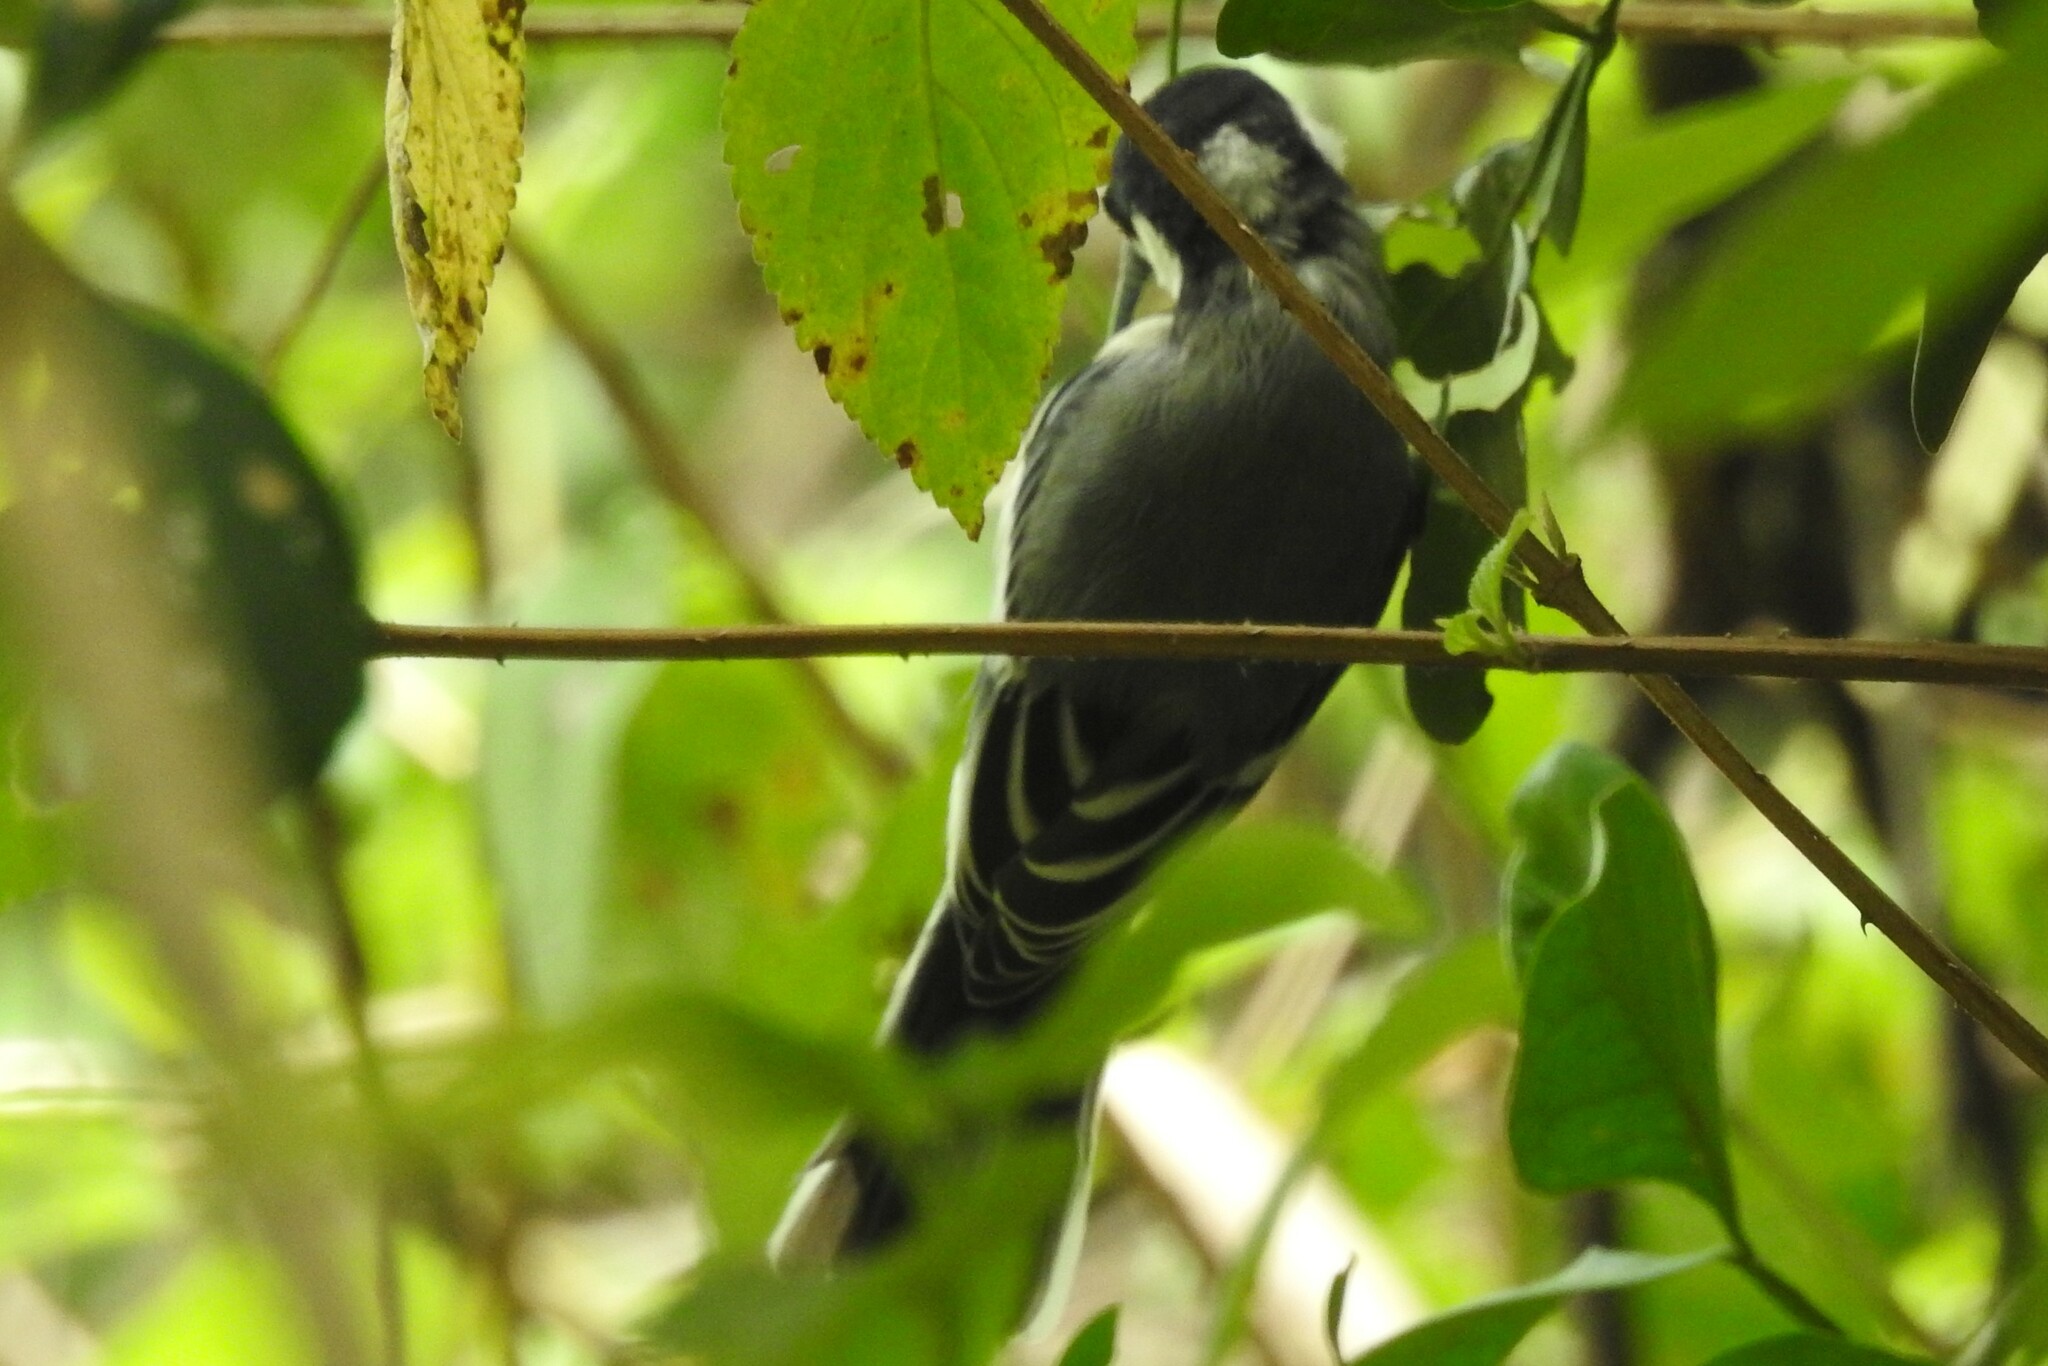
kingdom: Animalia
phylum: Chordata
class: Aves
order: Passeriformes
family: Paridae
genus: Parus
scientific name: Parus cinereus
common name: Cinereous tit
